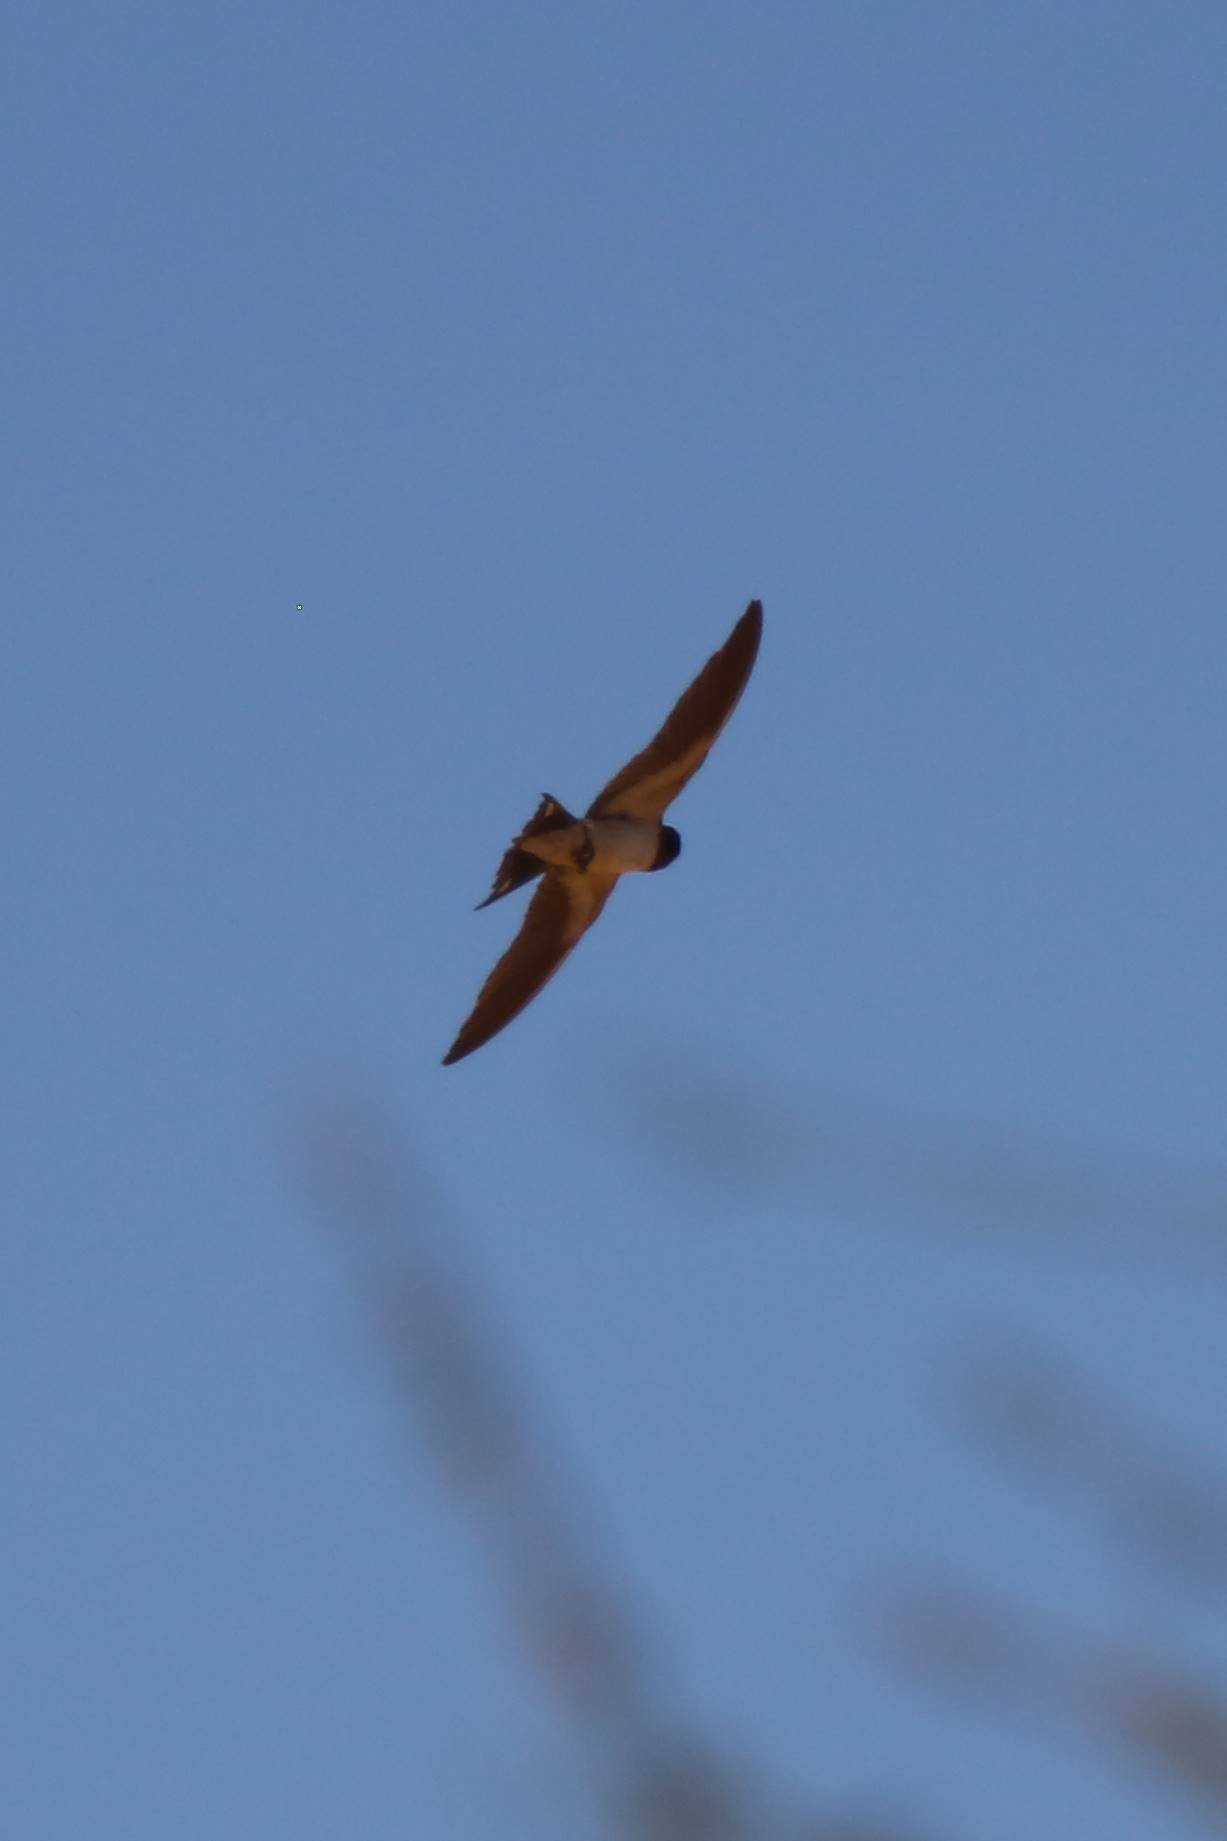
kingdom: Animalia
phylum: Chordata
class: Aves
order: Passeriformes
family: Hirundinidae
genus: Hirundo
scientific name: Hirundo rustica
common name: Barn swallow
